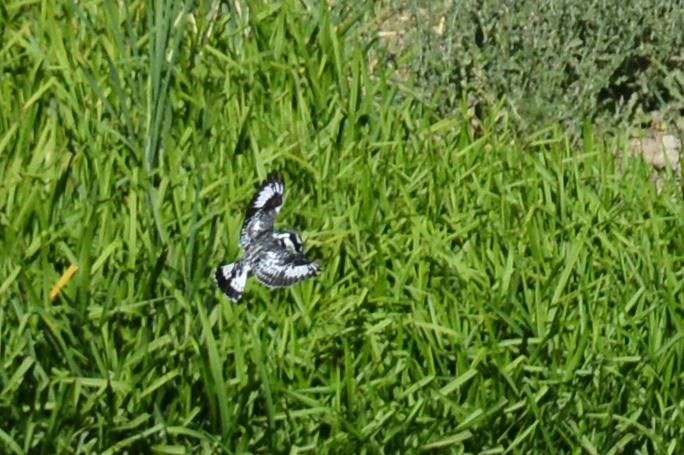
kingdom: Animalia
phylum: Chordata
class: Aves
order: Coraciiformes
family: Alcedinidae
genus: Ceryle
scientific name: Ceryle rudis
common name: Pied kingfisher
